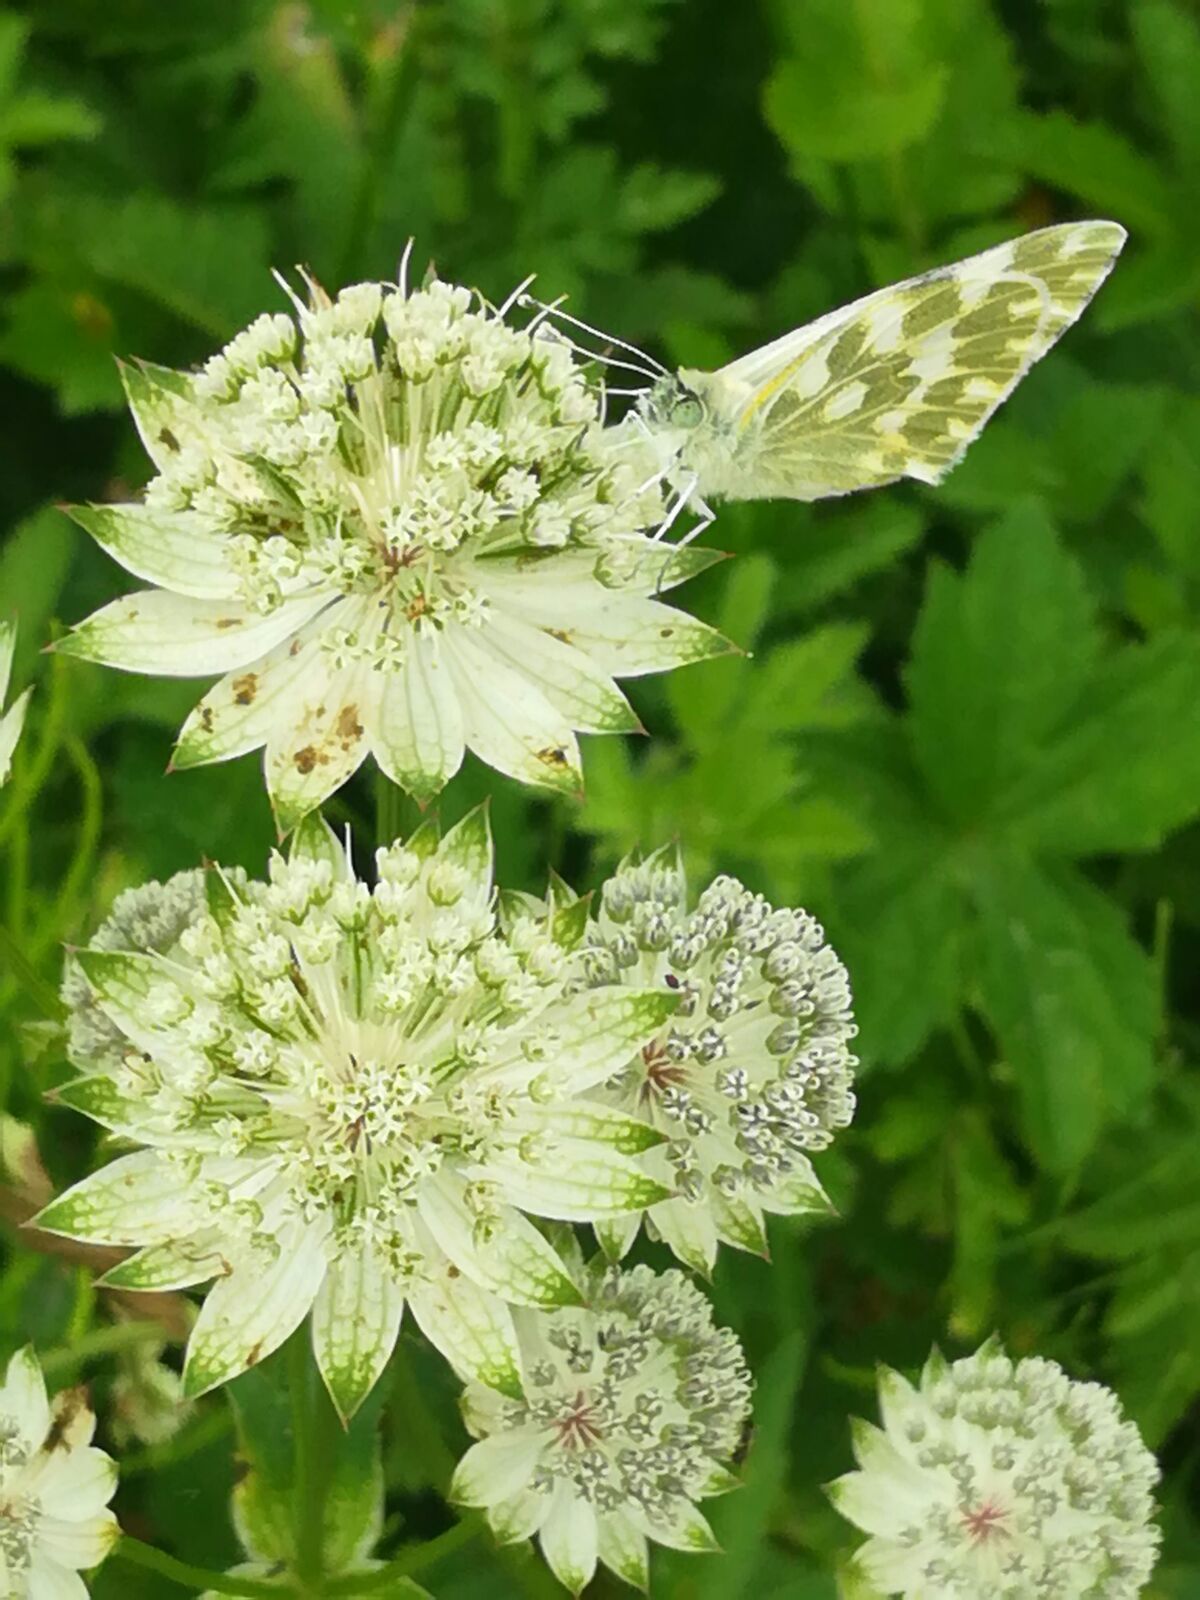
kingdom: Animalia
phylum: Arthropoda
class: Insecta
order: Lepidoptera
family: Pieridae
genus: Pontia
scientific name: Pontia daplidice
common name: Bath white
